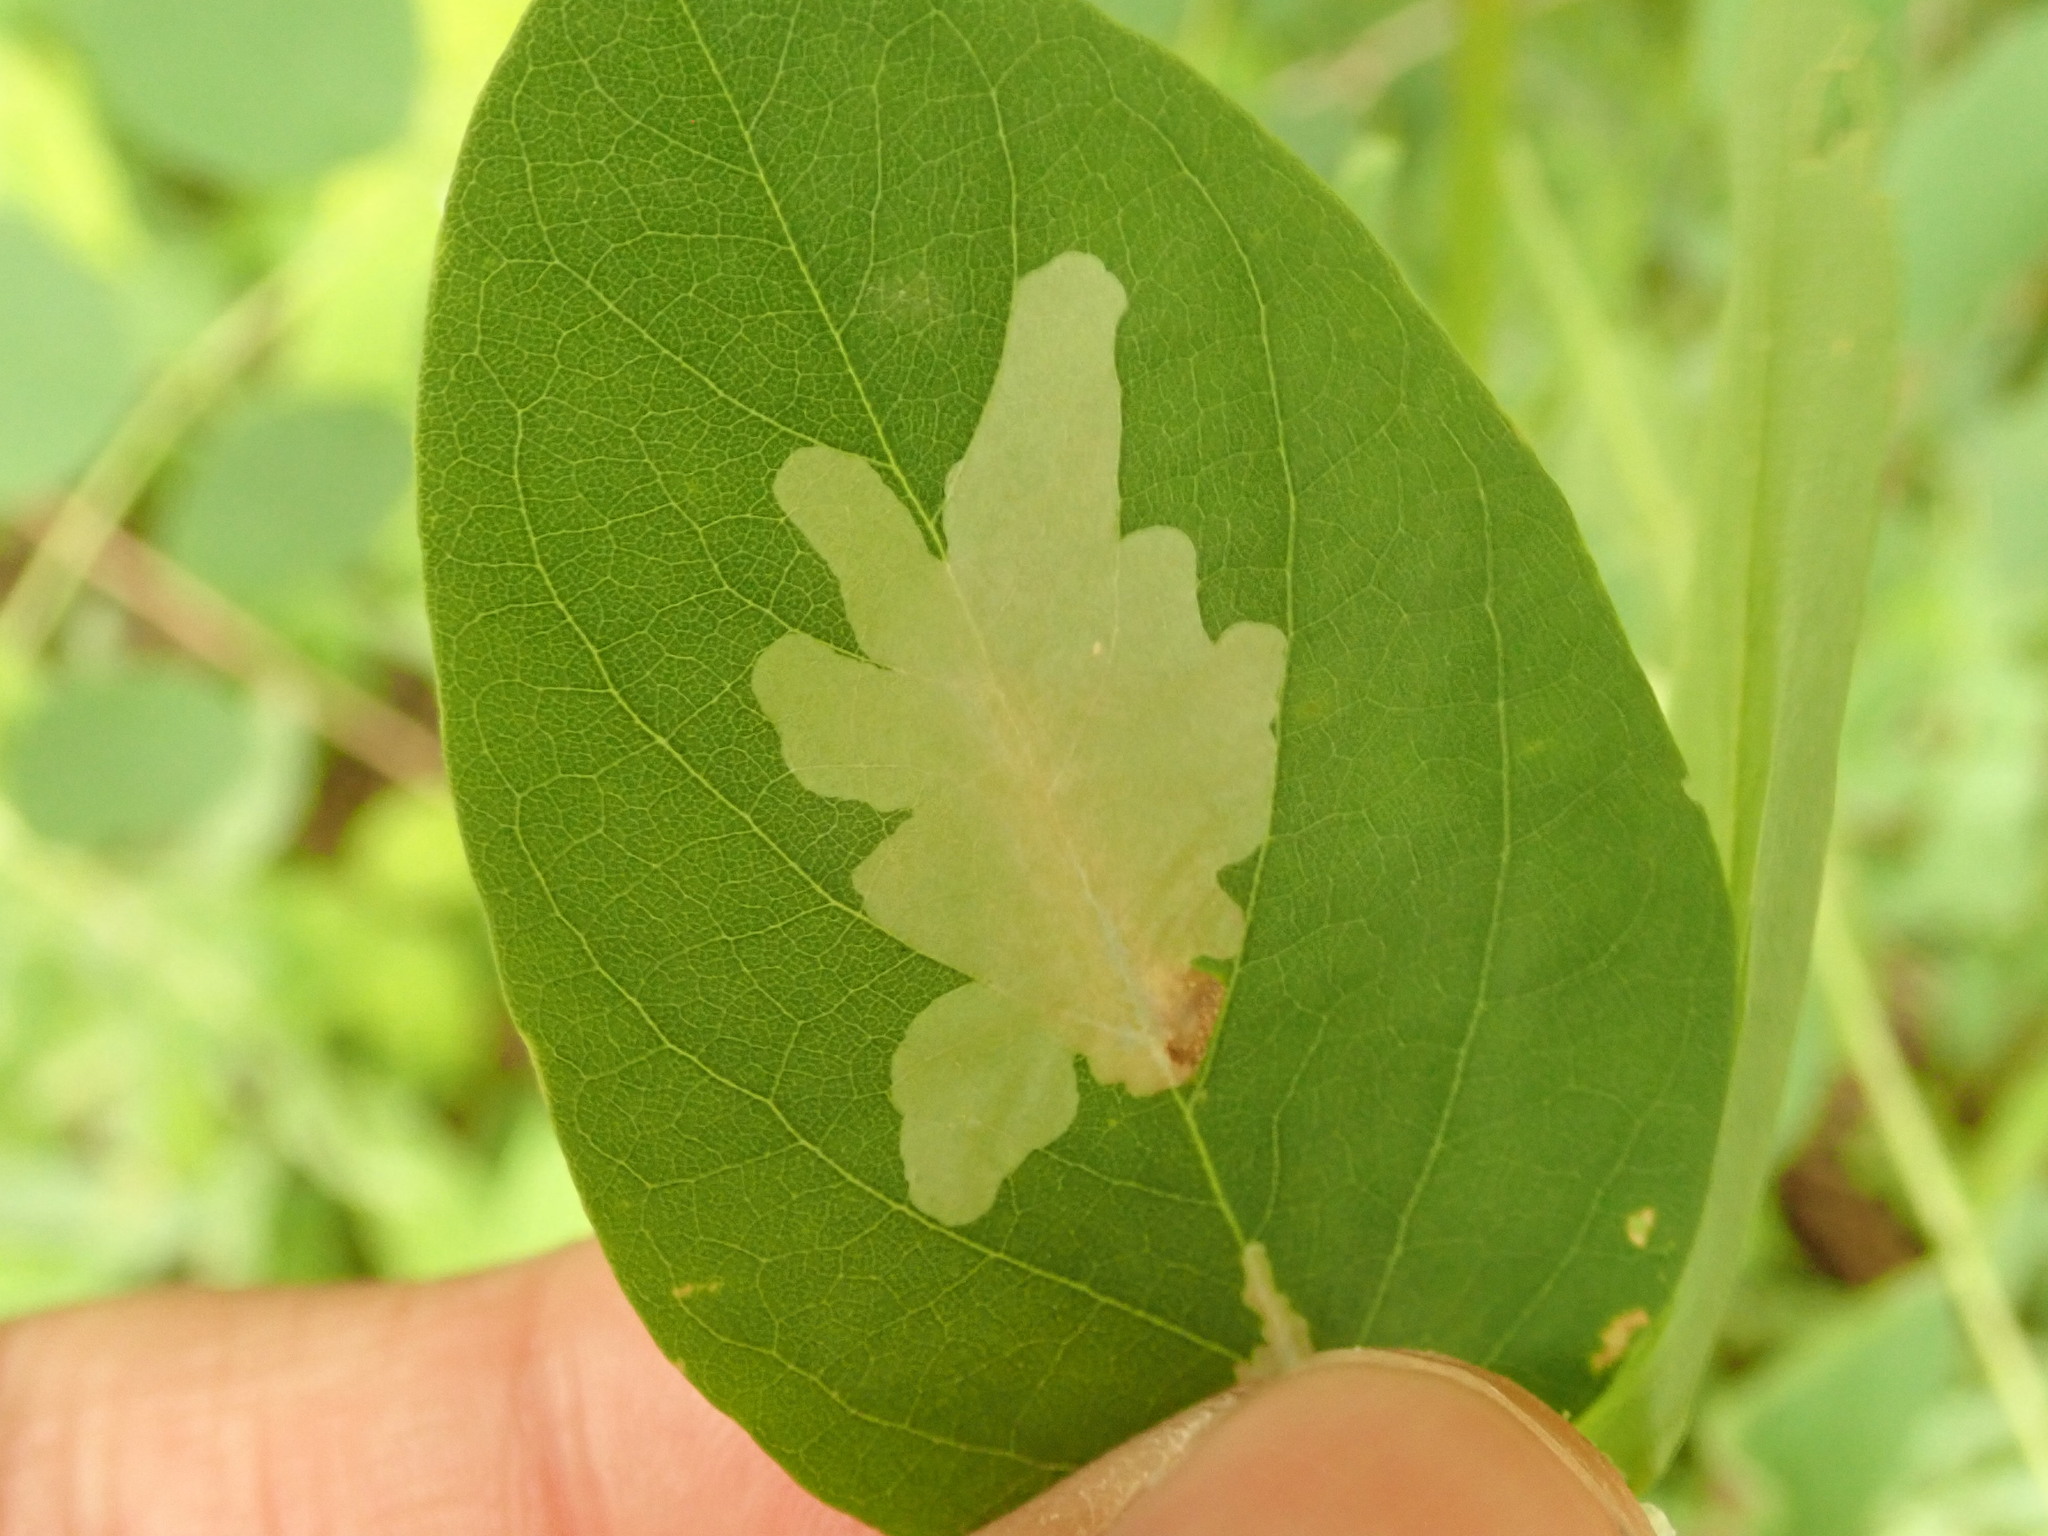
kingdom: Animalia
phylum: Arthropoda
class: Insecta
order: Lepidoptera
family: Gracillariidae
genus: Parectopa
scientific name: Parectopa robiniella
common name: Locust digitate leafminer
